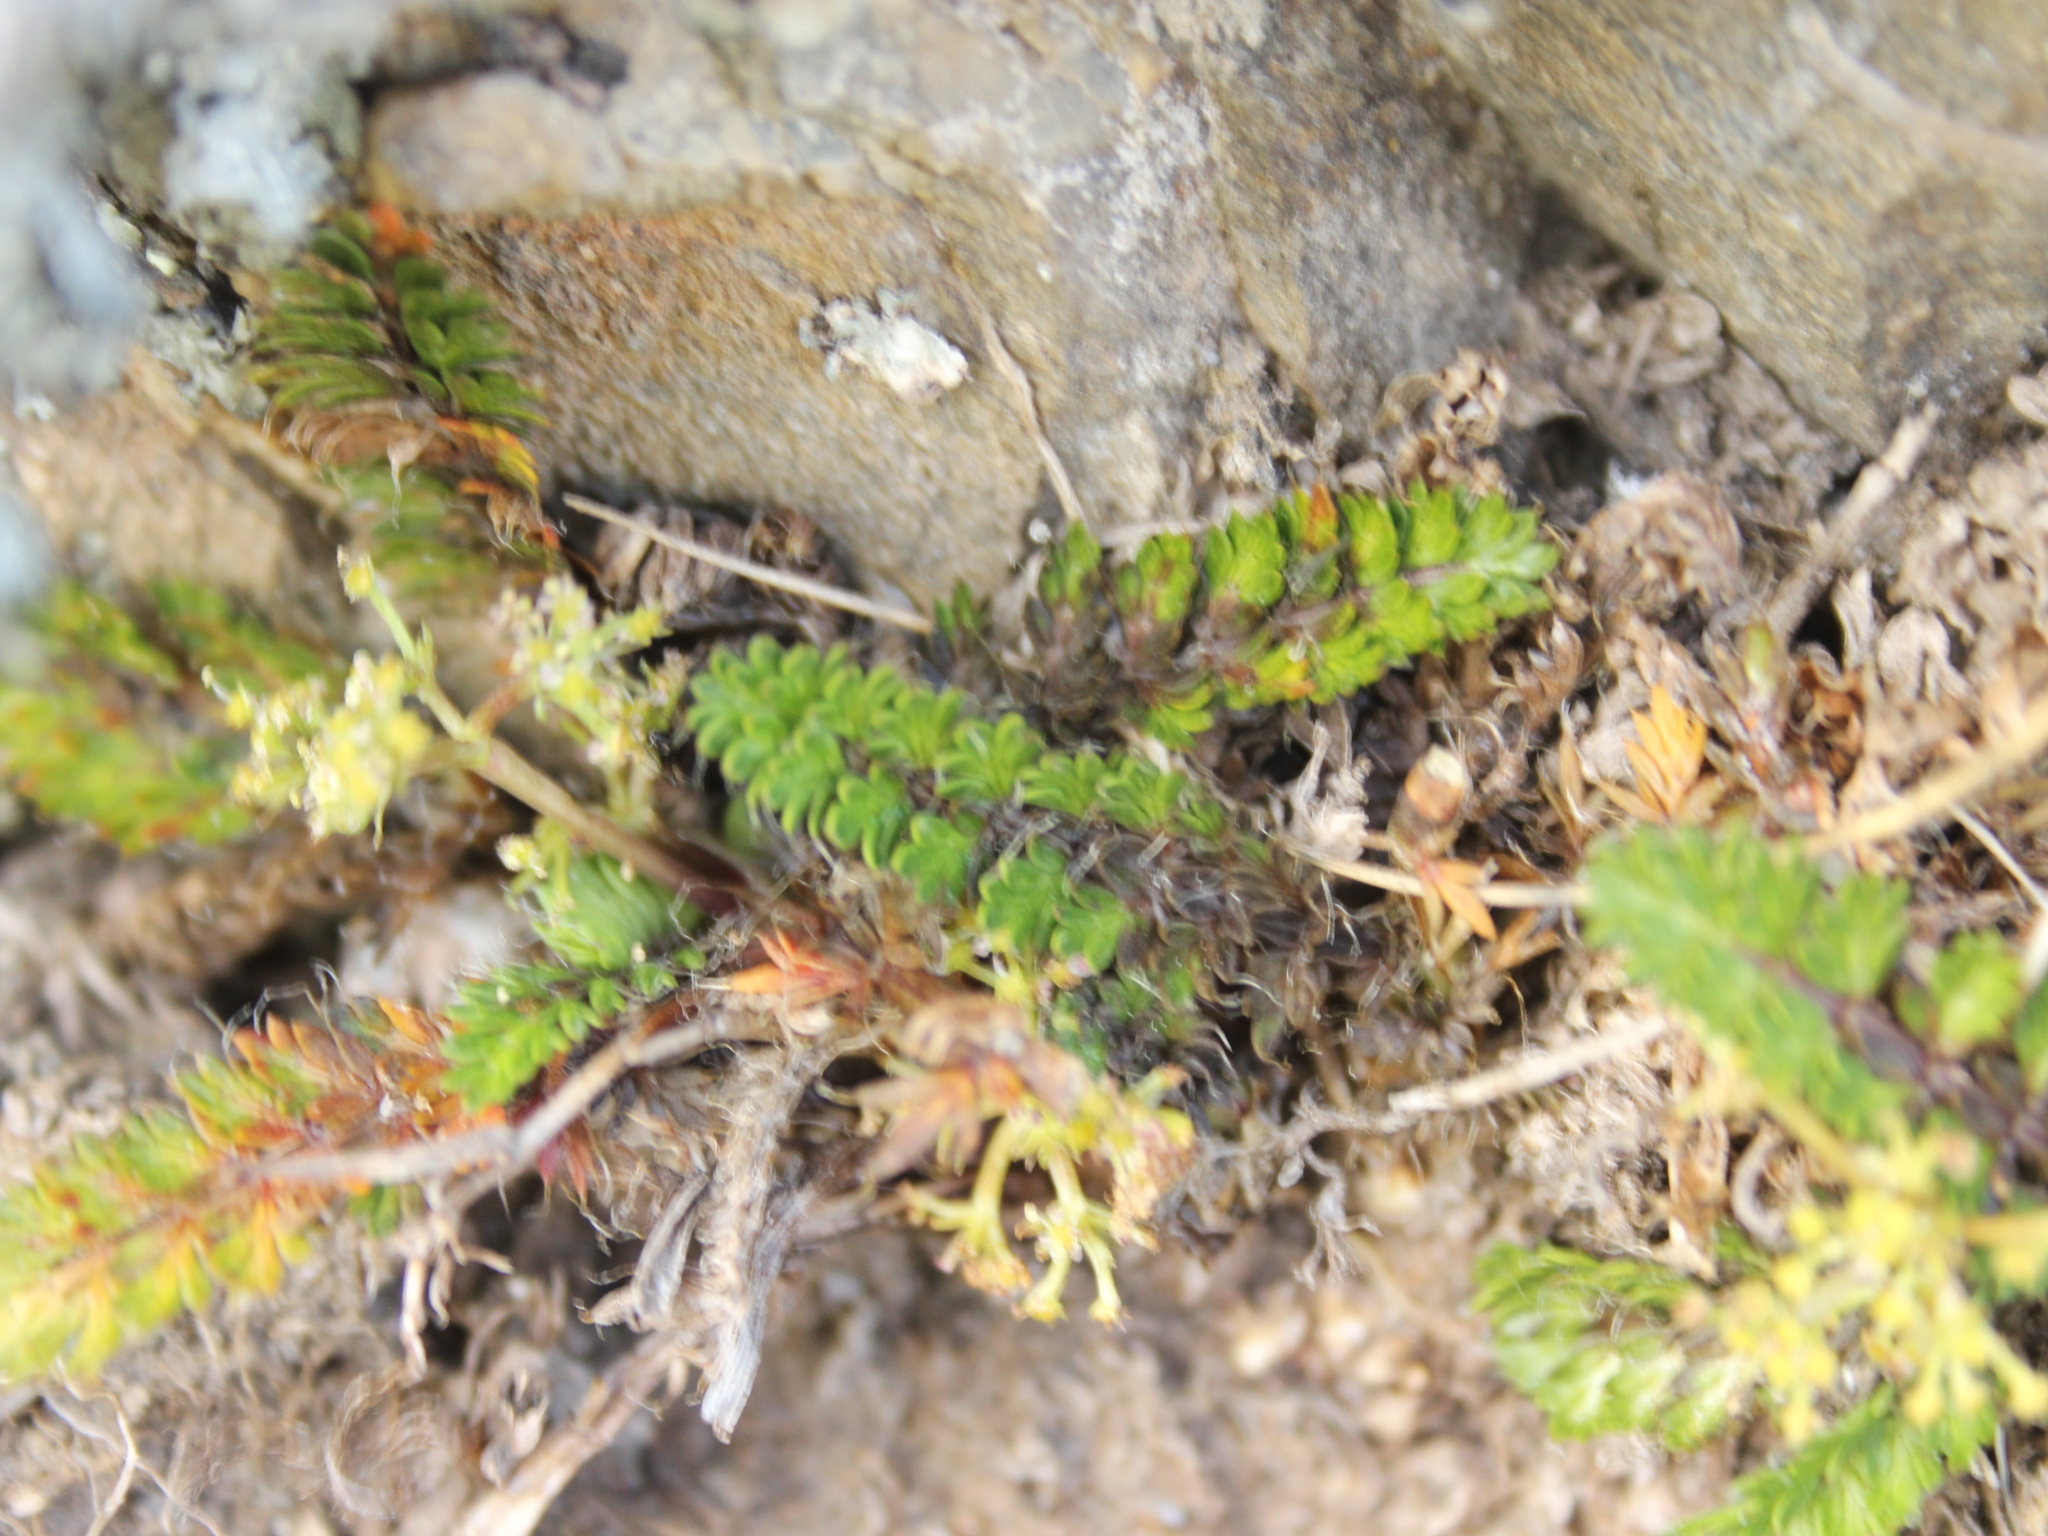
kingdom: Plantae
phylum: Tracheophyta
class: Magnoliopsida
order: Apiales
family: Apiaceae
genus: Anisotome
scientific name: Anisotome aromatica
